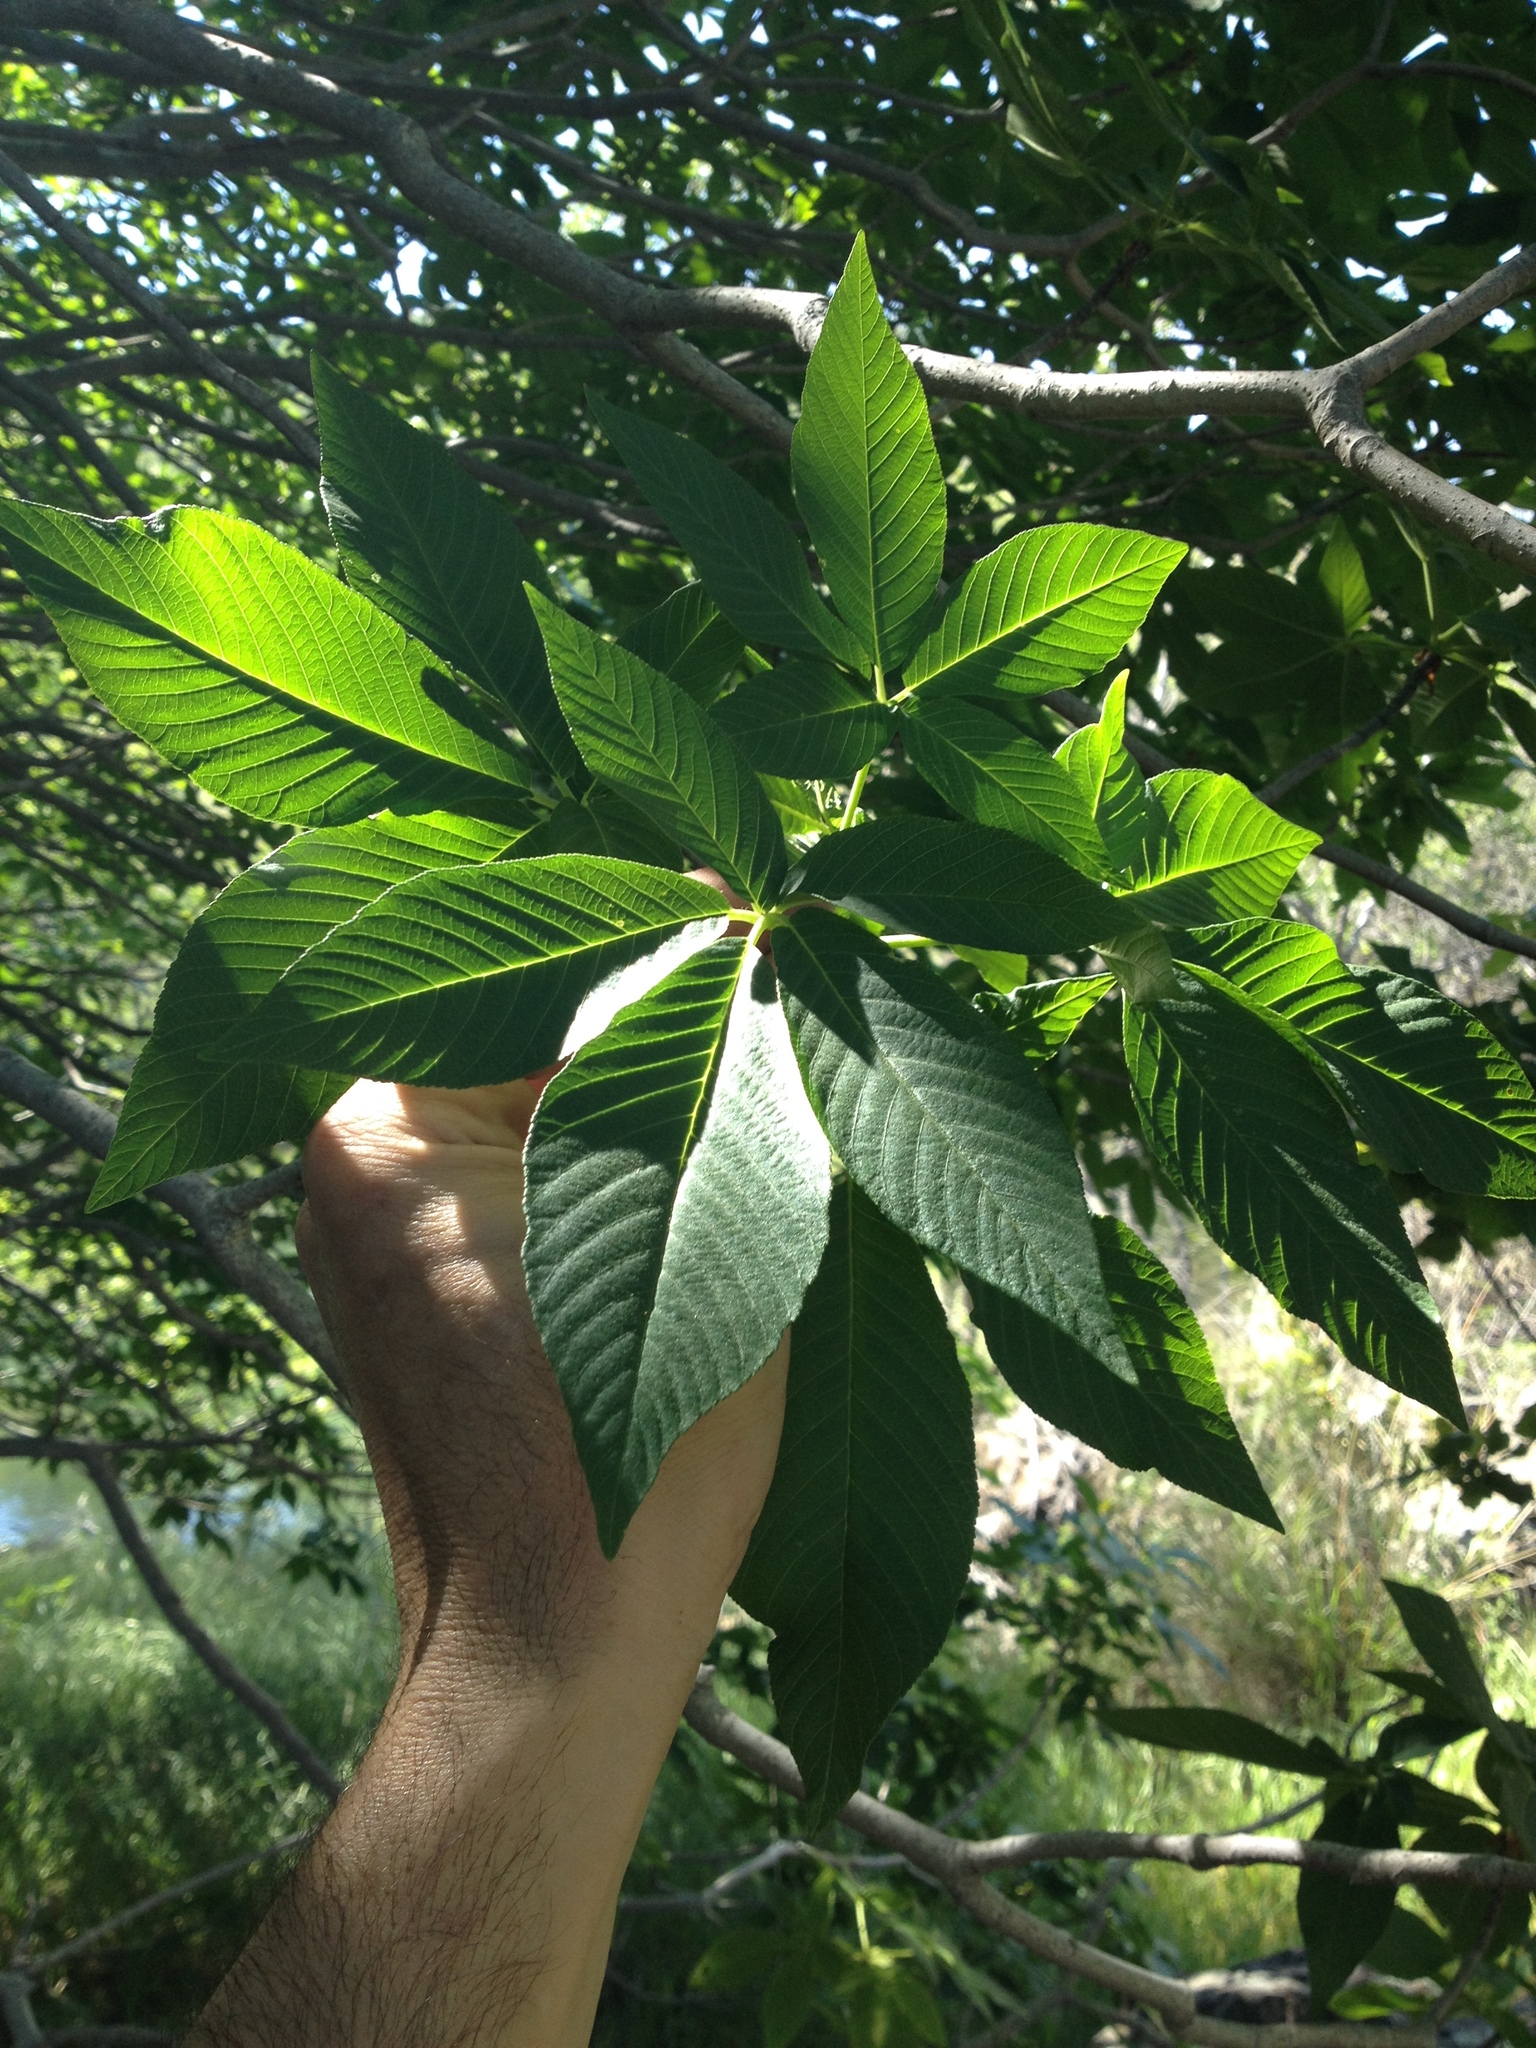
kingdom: Plantae
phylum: Tracheophyta
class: Magnoliopsida
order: Sapindales
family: Sapindaceae
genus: Aesculus
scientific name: Aesculus californica
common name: California buckeye
